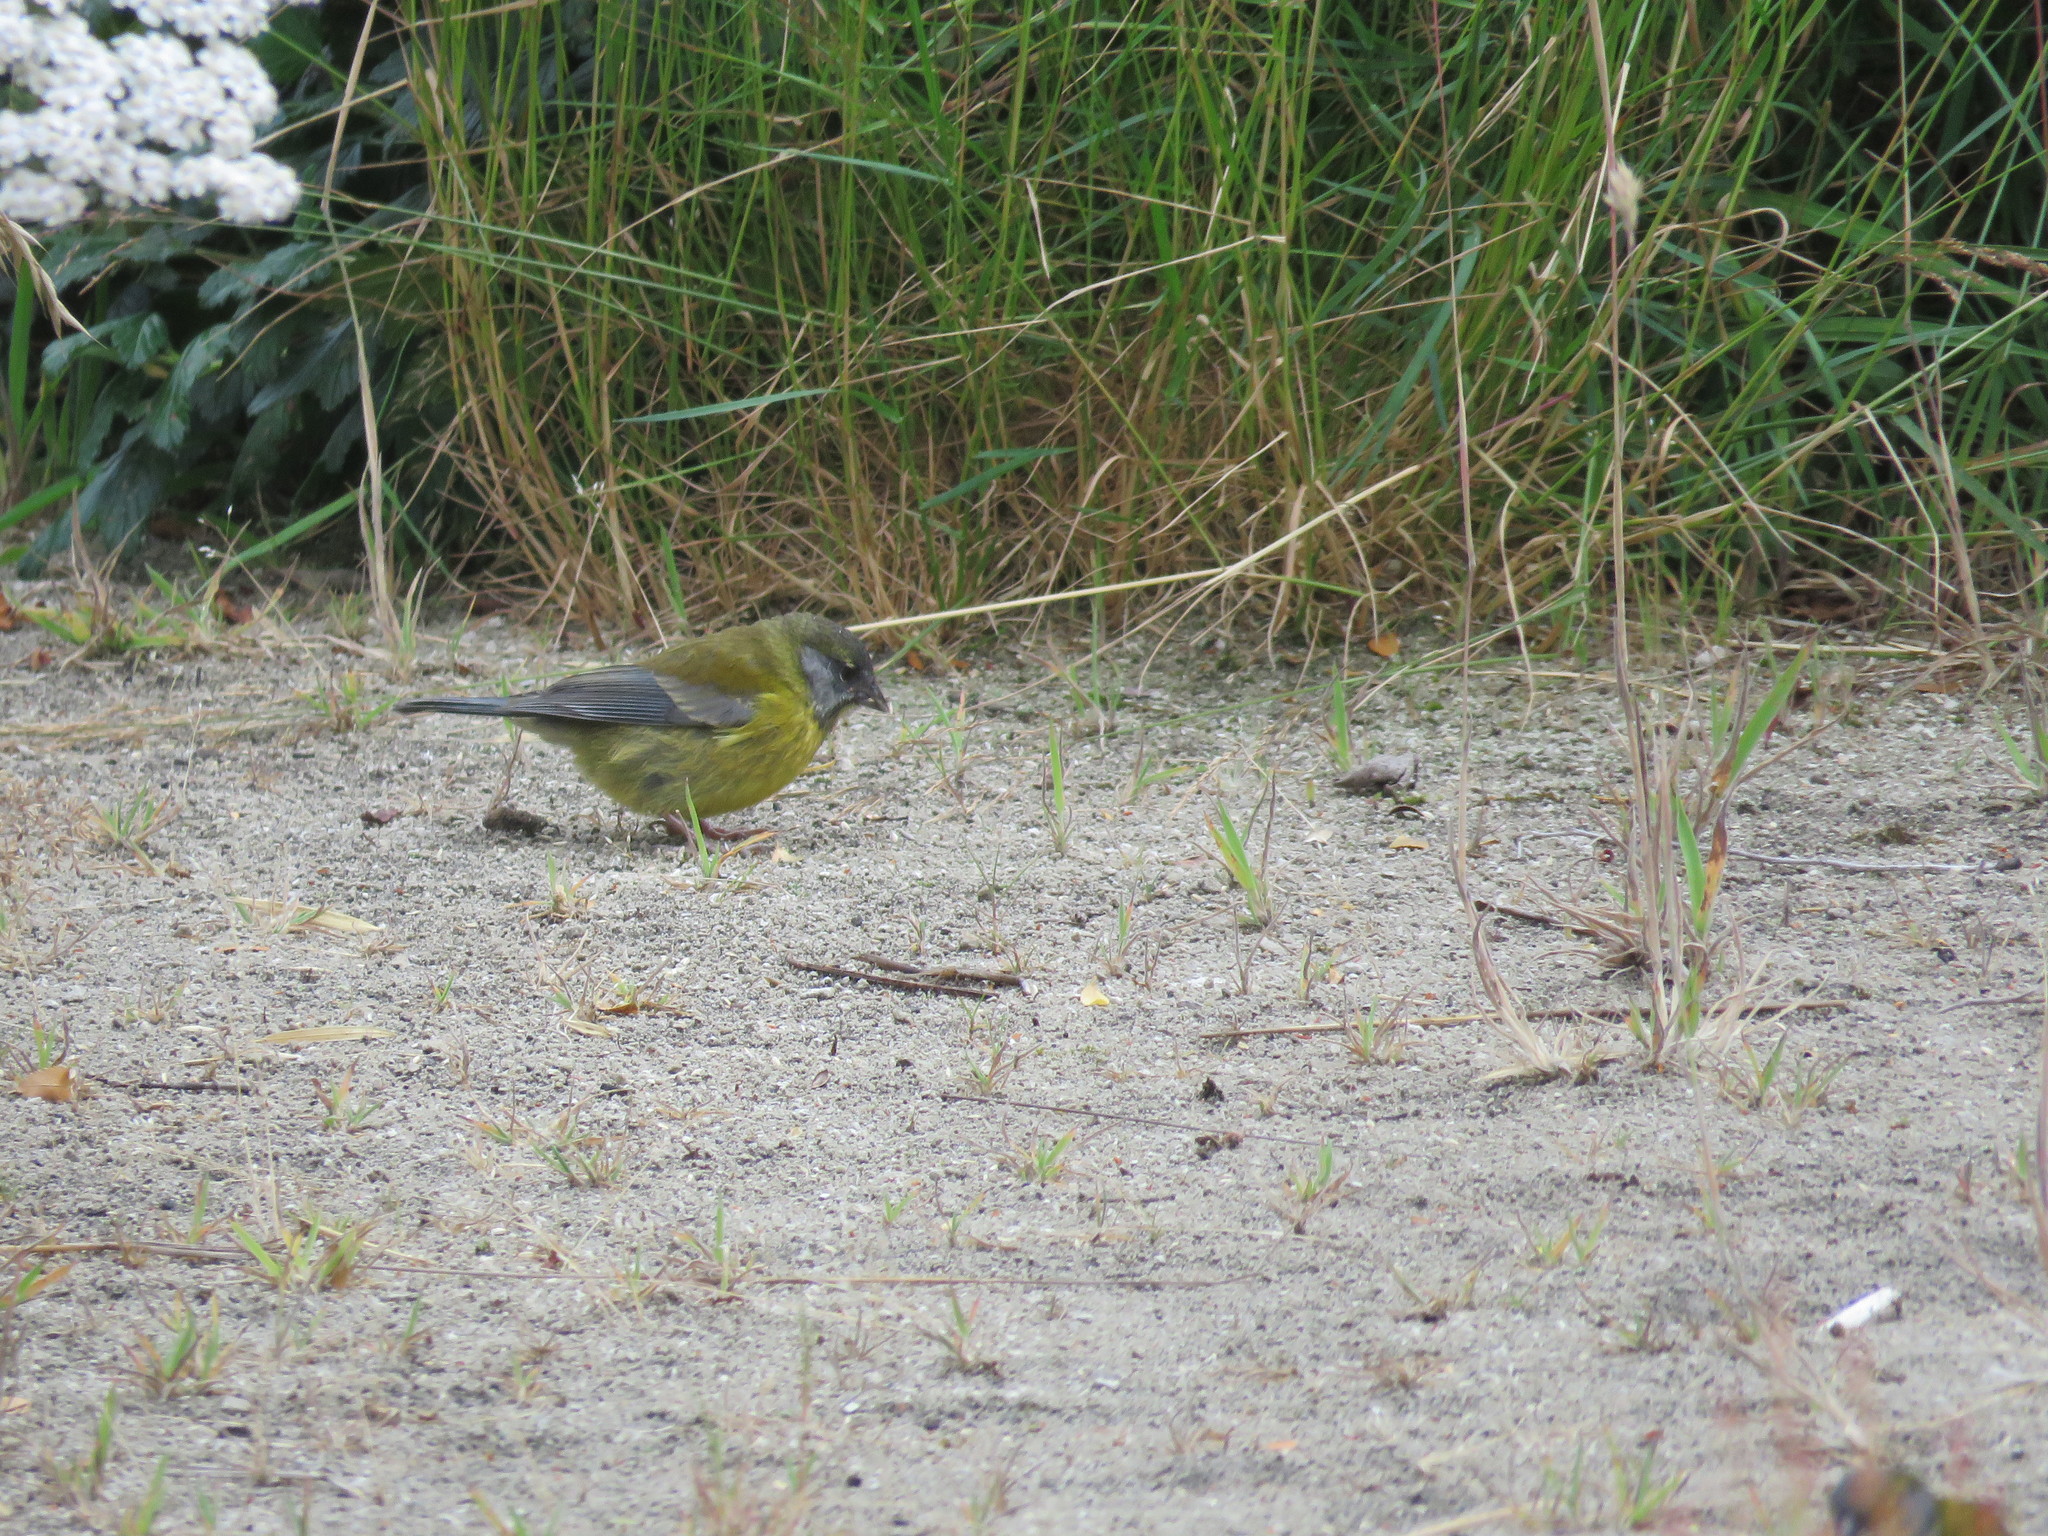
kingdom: Animalia
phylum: Chordata
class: Aves
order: Passeriformes
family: Thraupidae
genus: Phrygilus
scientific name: Phrygilus gayi
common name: Grey-hooded sierra finch
